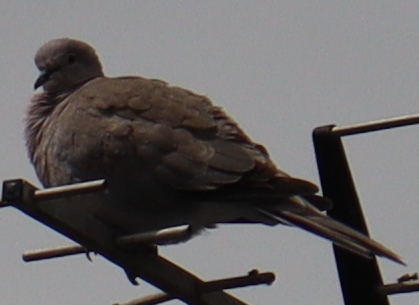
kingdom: Animalia
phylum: Chordata
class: Aves
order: Columbiformes
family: Columbidae
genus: Streptopelia
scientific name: Streptopelia decaocto
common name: Eurasian collared dove
